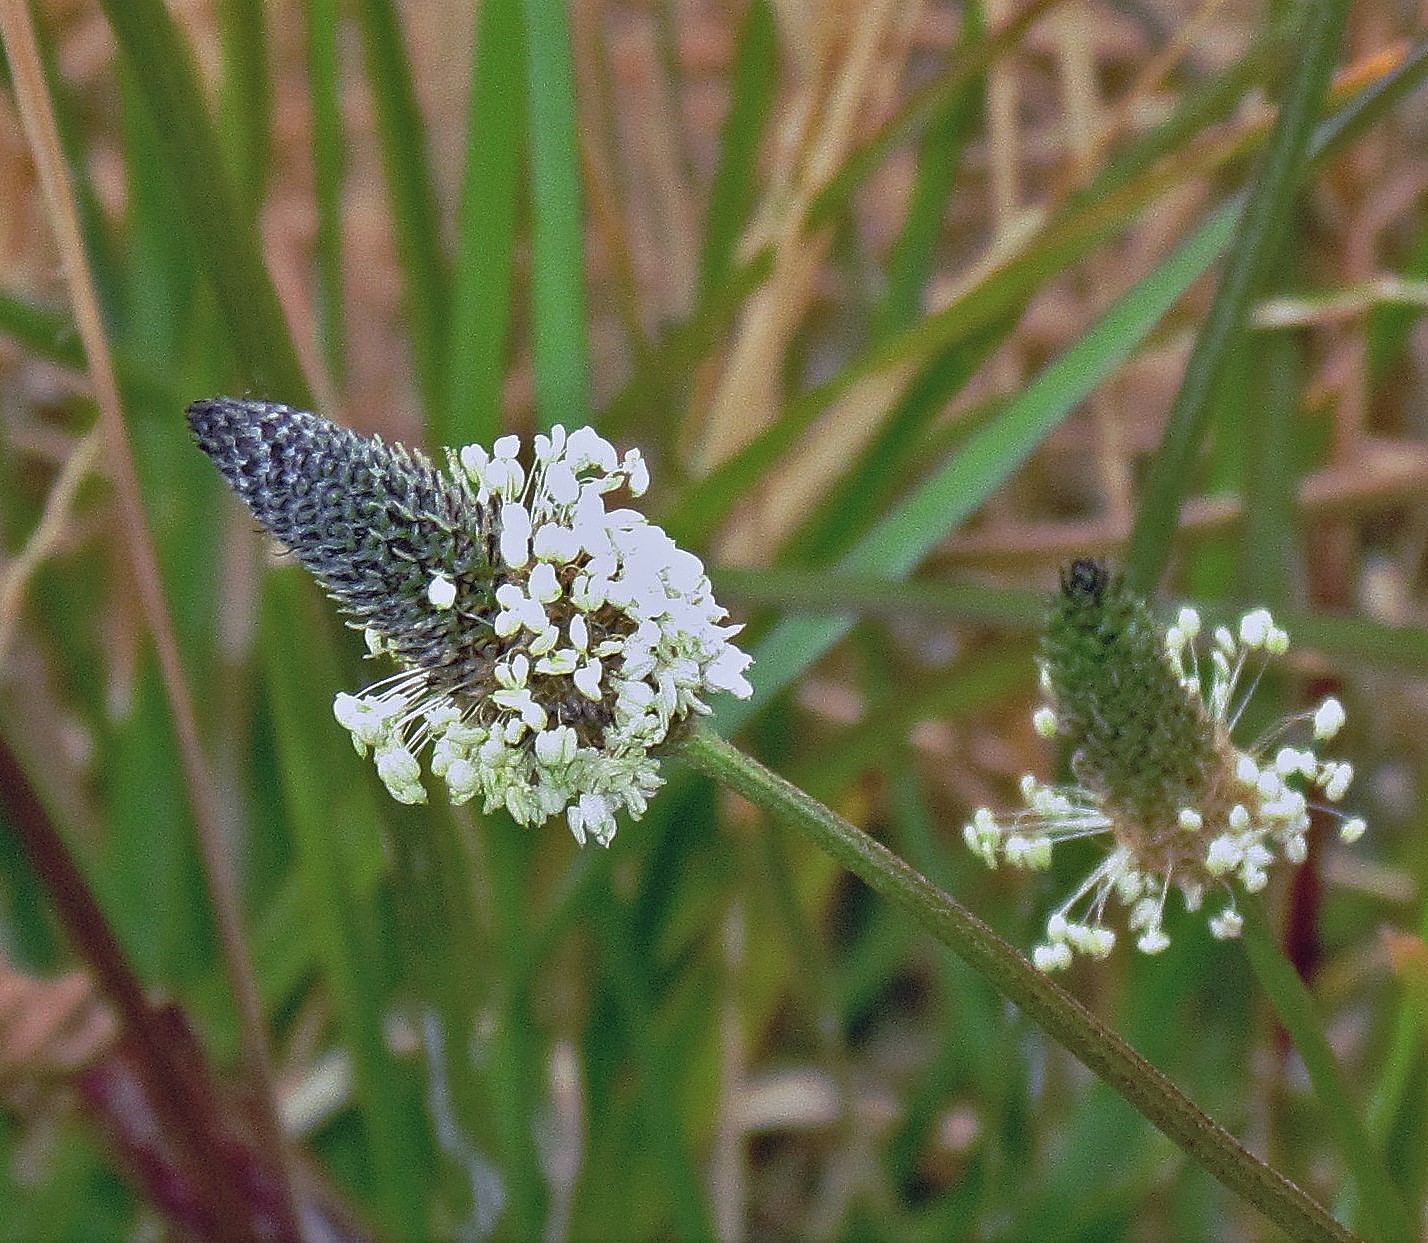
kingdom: Plantae
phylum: Tracheophyta
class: Magnoliopsida
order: Lamiales
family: Plantaginaceae
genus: Plantago
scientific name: Plantago lanceolata
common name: Ribwort plantain
